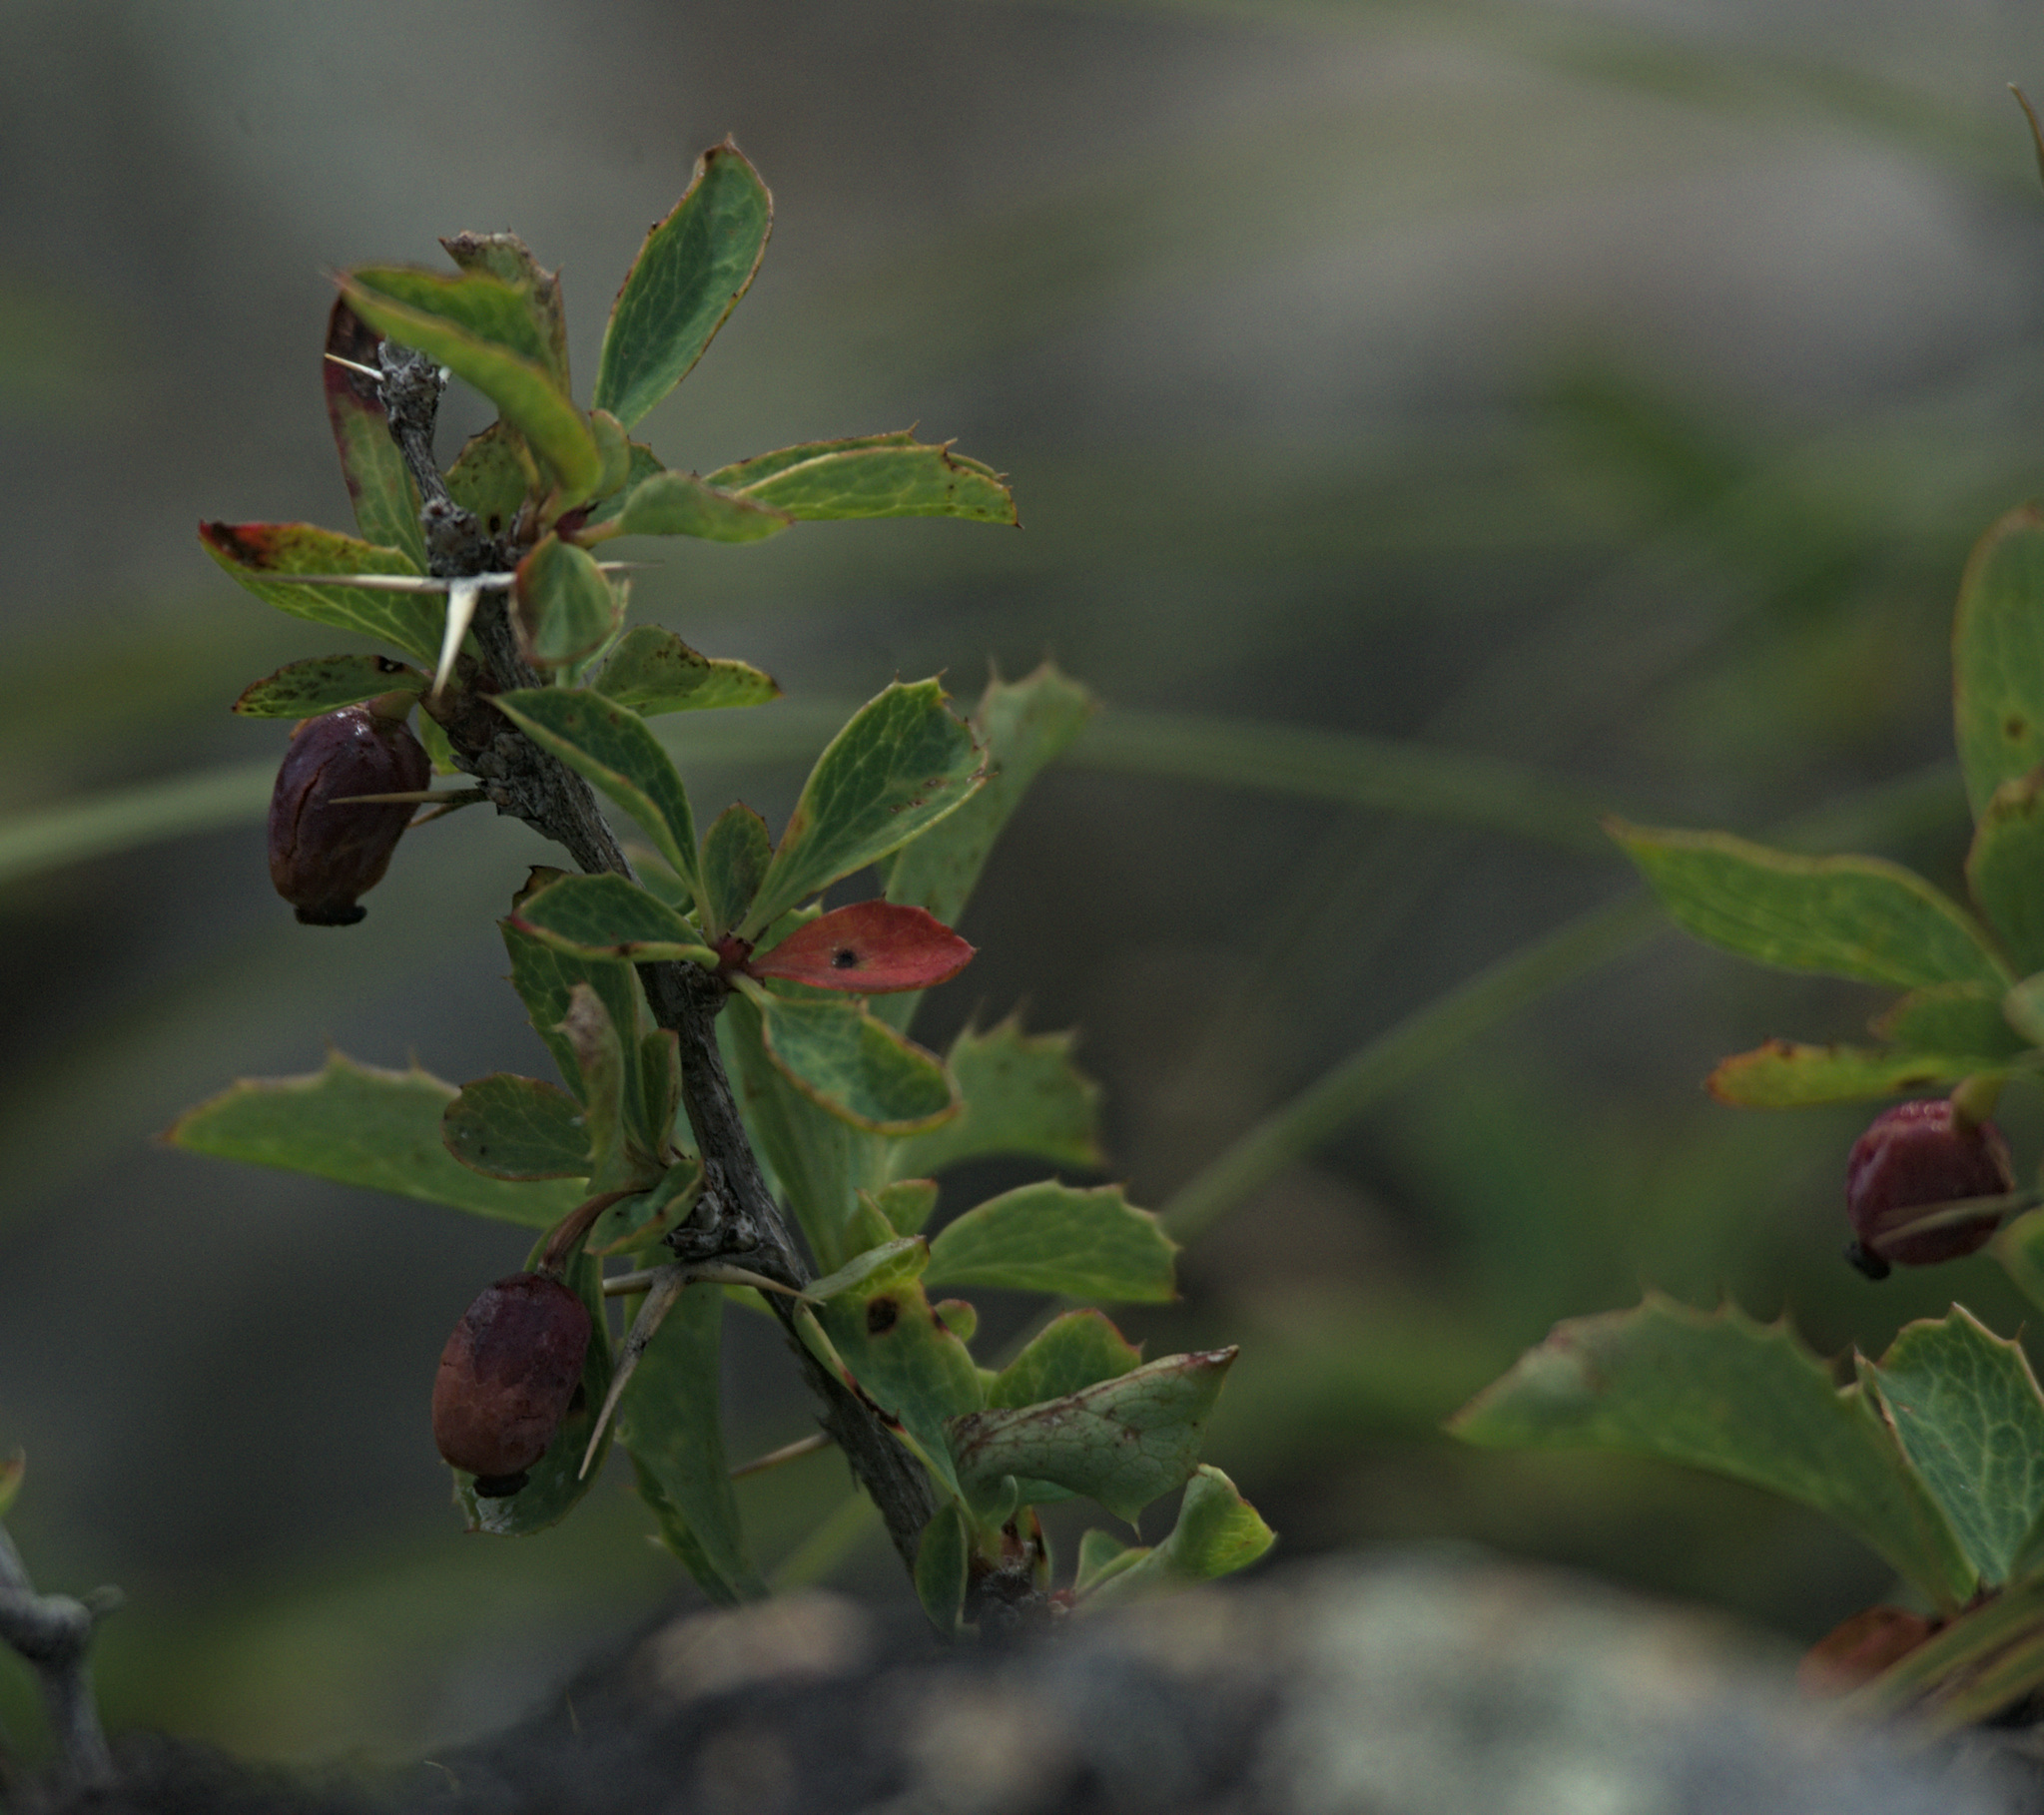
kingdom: Plantae
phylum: Tracheophyta
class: Magnoliopsida
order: Ranunculales
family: Berberidaceae
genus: Berberis
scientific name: Berberis sibirica
